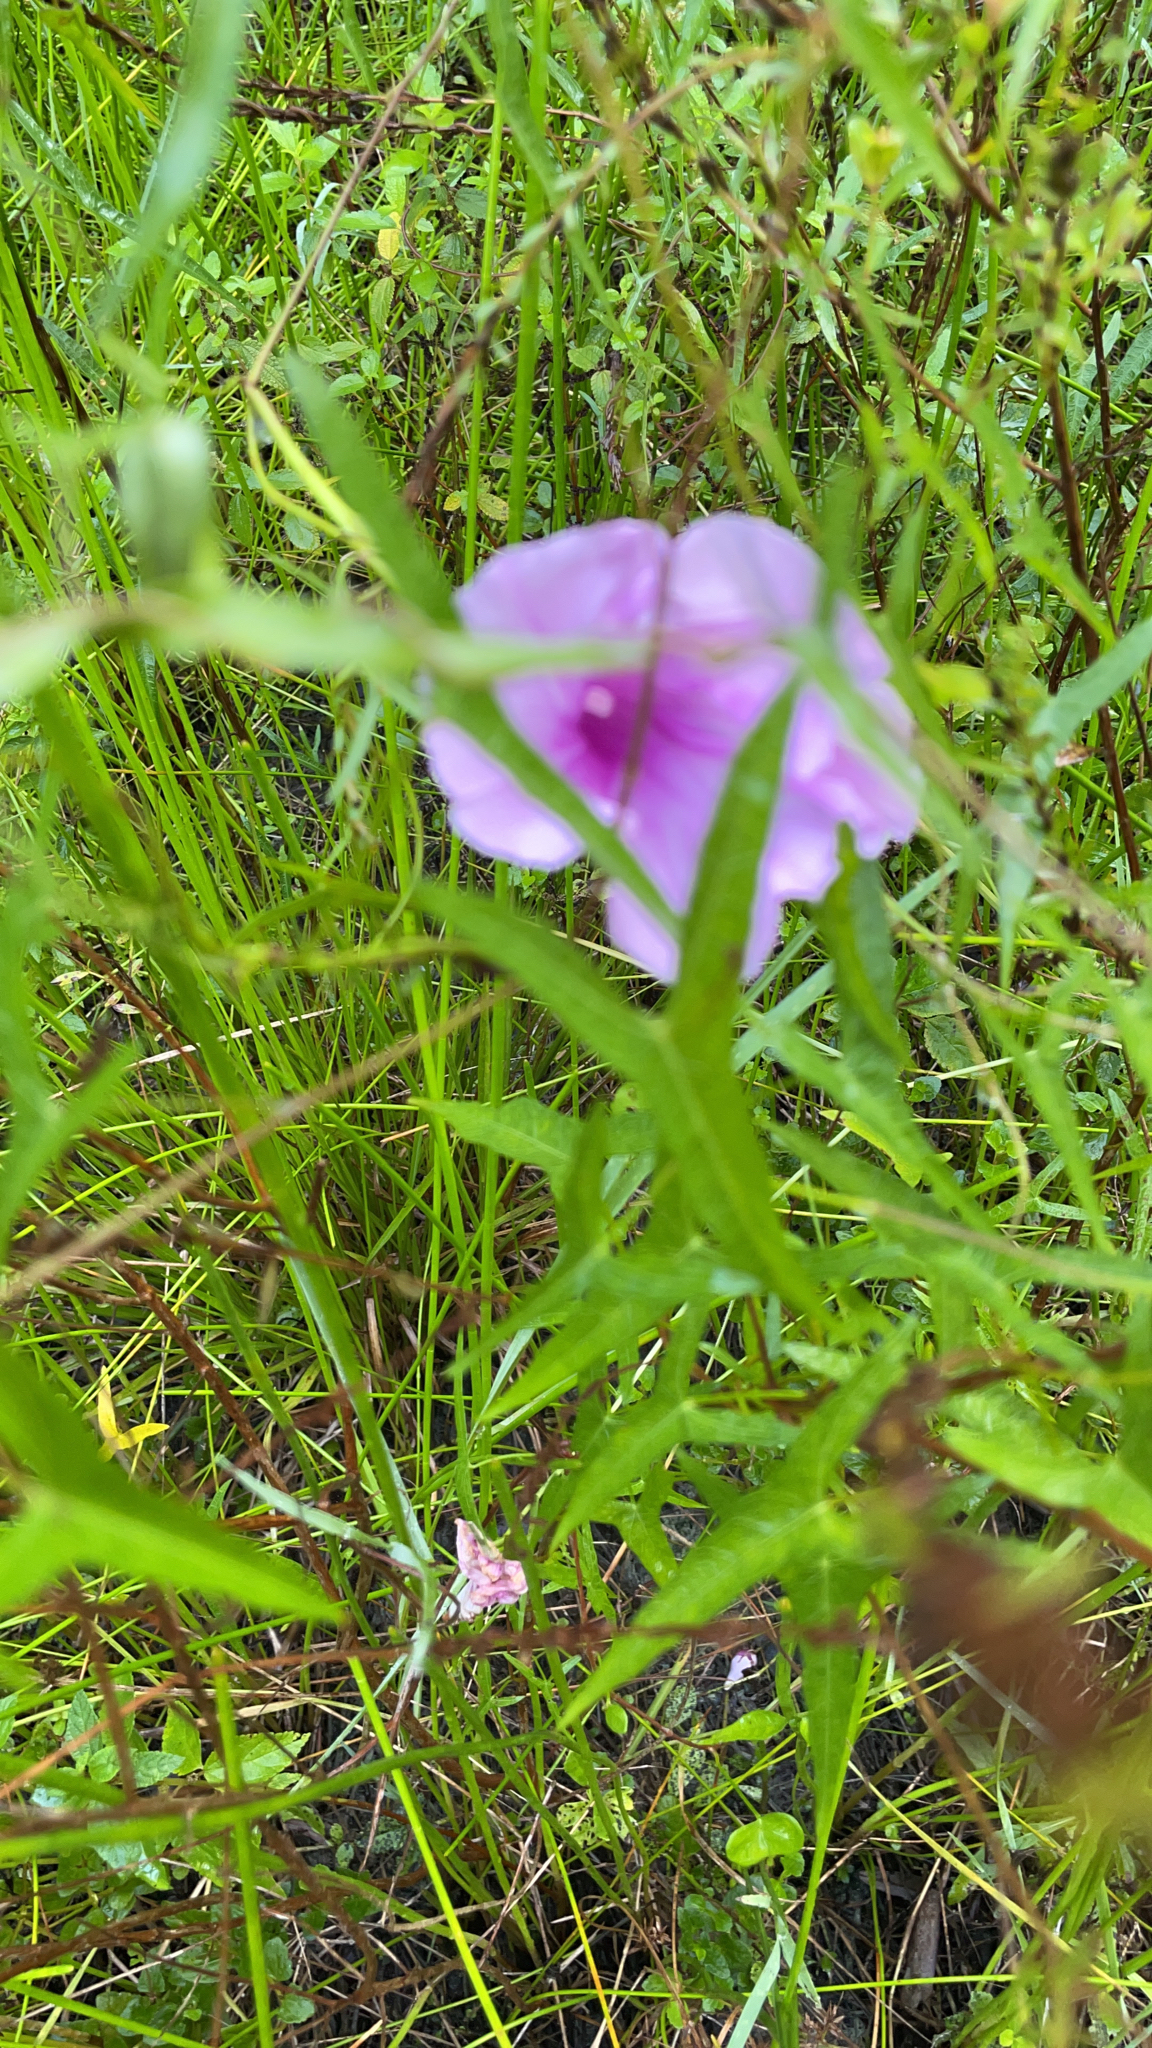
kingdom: Plantae
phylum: Tracheophyta
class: Magnoliopsida
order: Solanales
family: Convolvulaceae
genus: Ipomoea
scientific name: Ipomoea sagittata
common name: Saltmarsh morning glory
